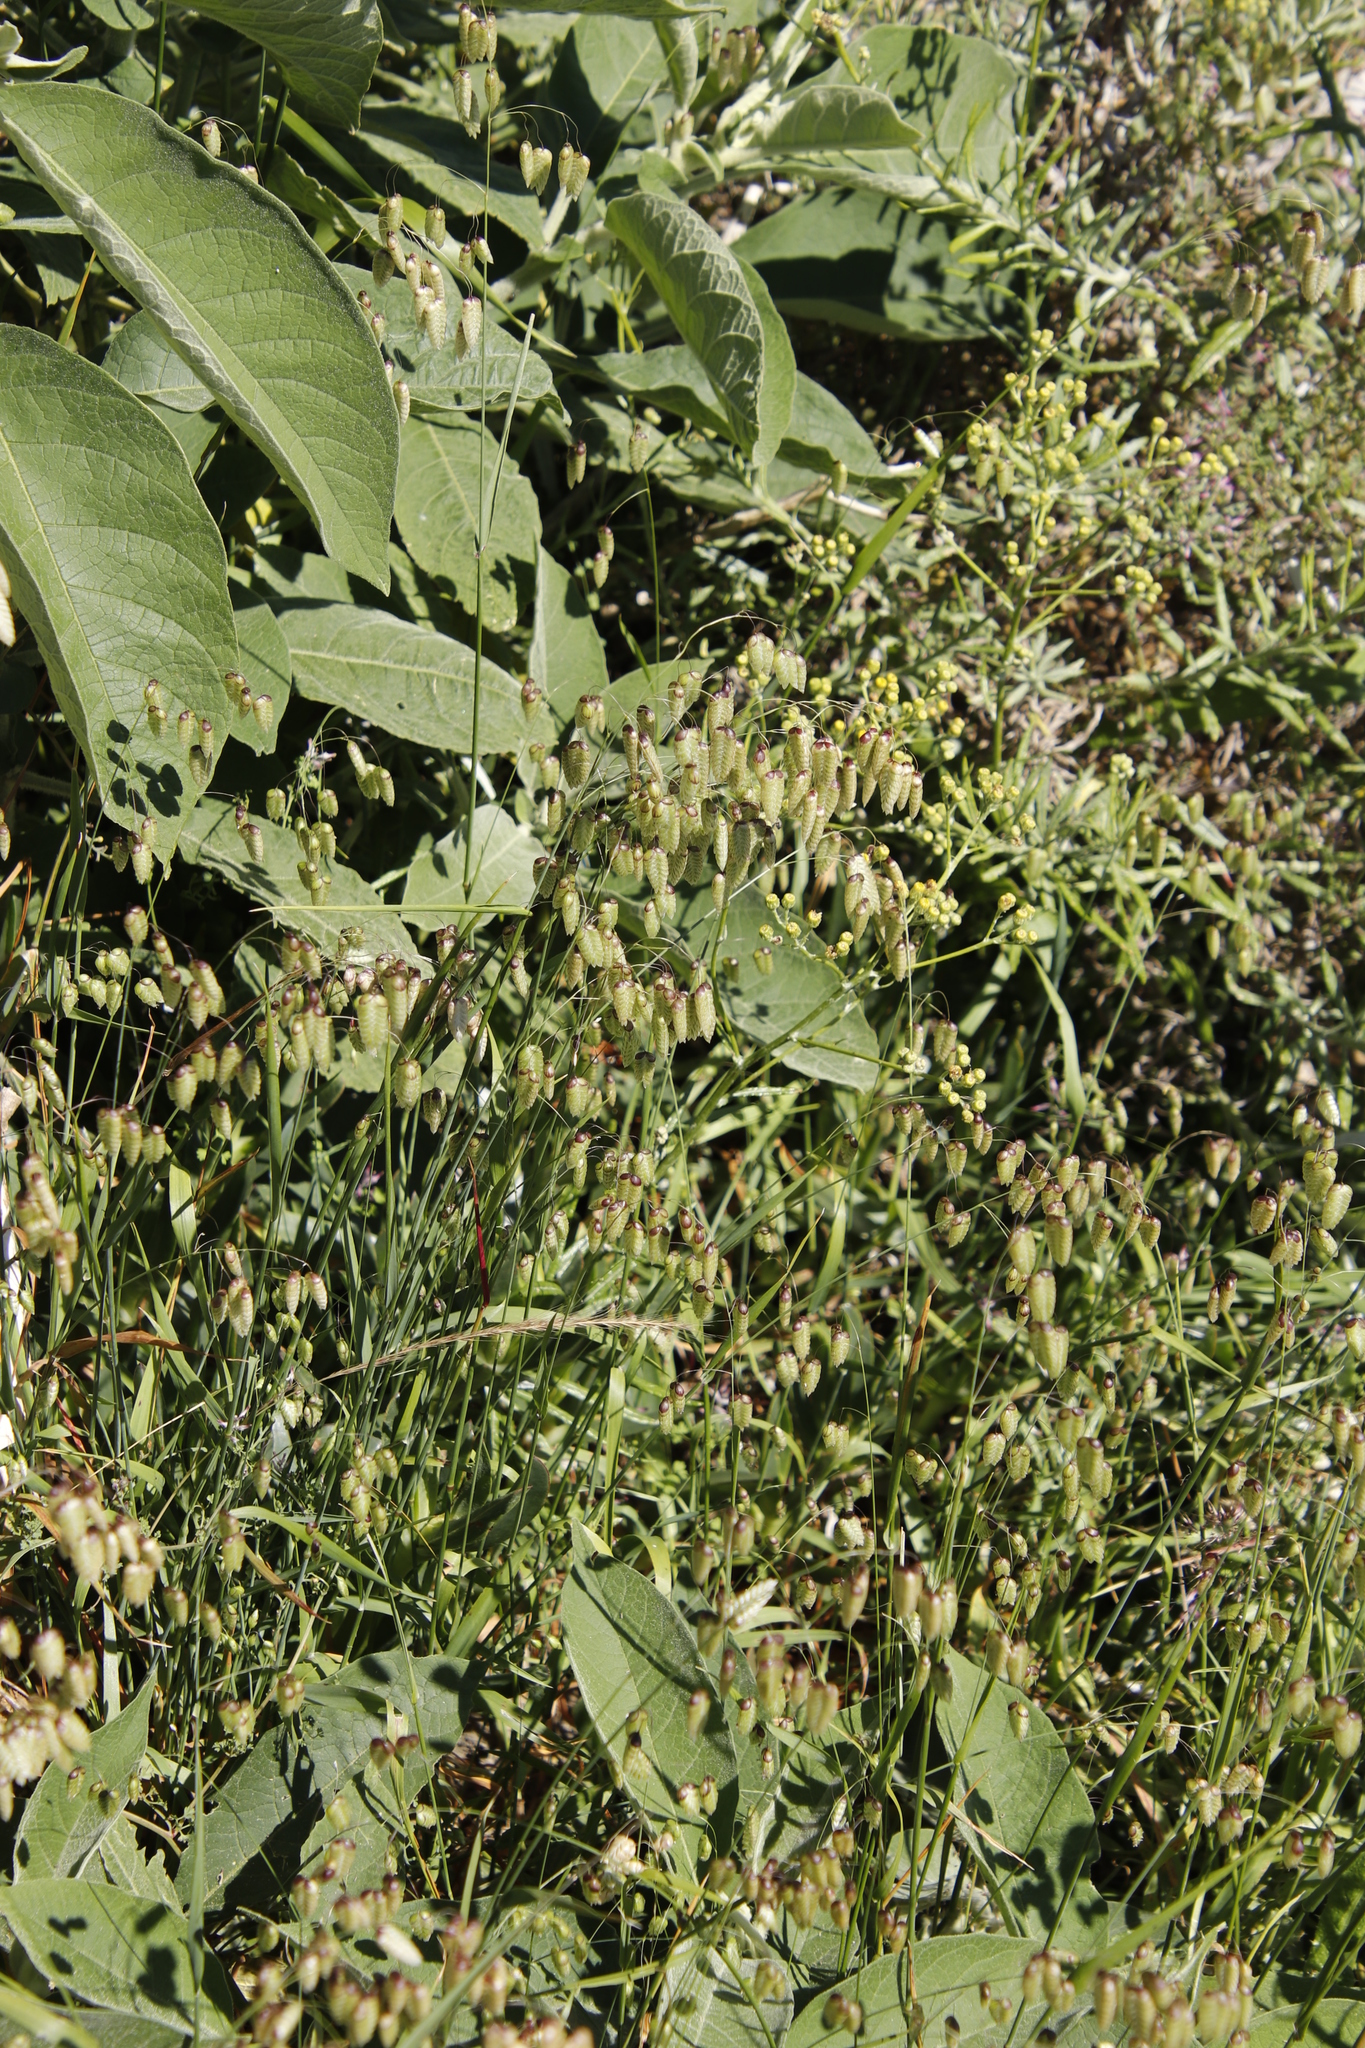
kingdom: Plantae
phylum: Tracheophyta
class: Liliopsida
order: Poales
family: Poaceae
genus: Briza
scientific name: Briza maxima
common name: Big quakinggrass
